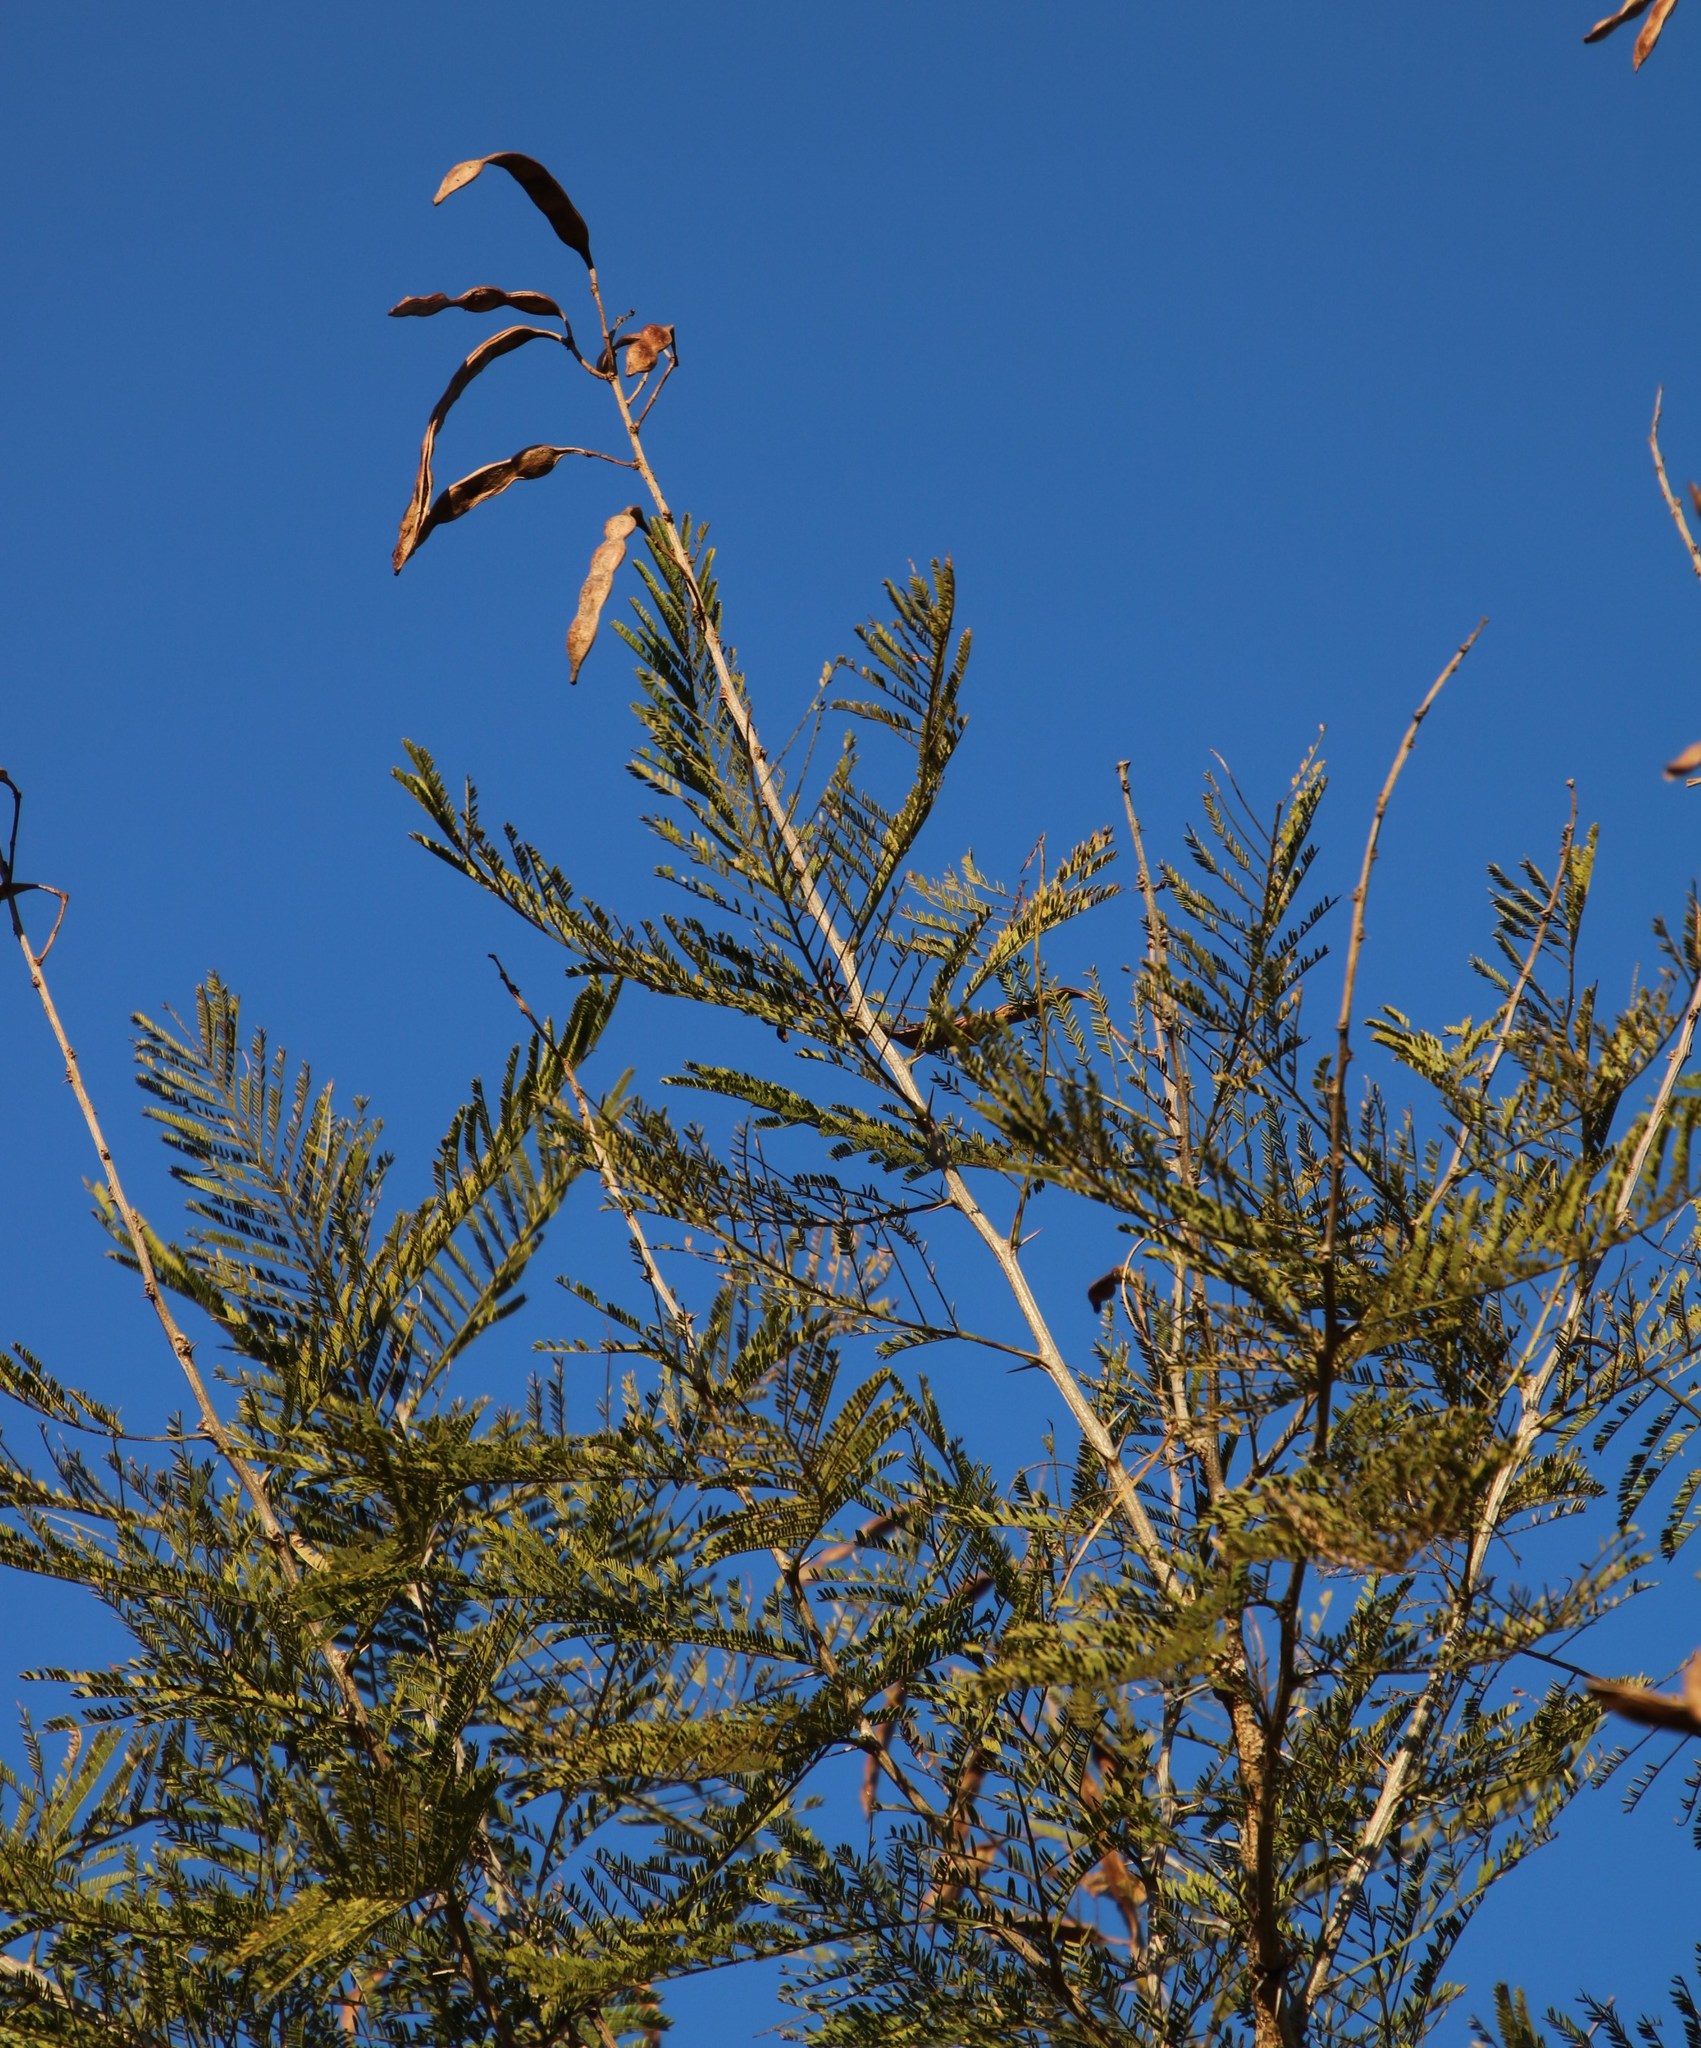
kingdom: Plantae
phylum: Tracheophyta
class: Magnoliopsida
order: Fabales
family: Fabaceae
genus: Vachellia
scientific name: Vachellia davyi
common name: Cork-bark thorn
